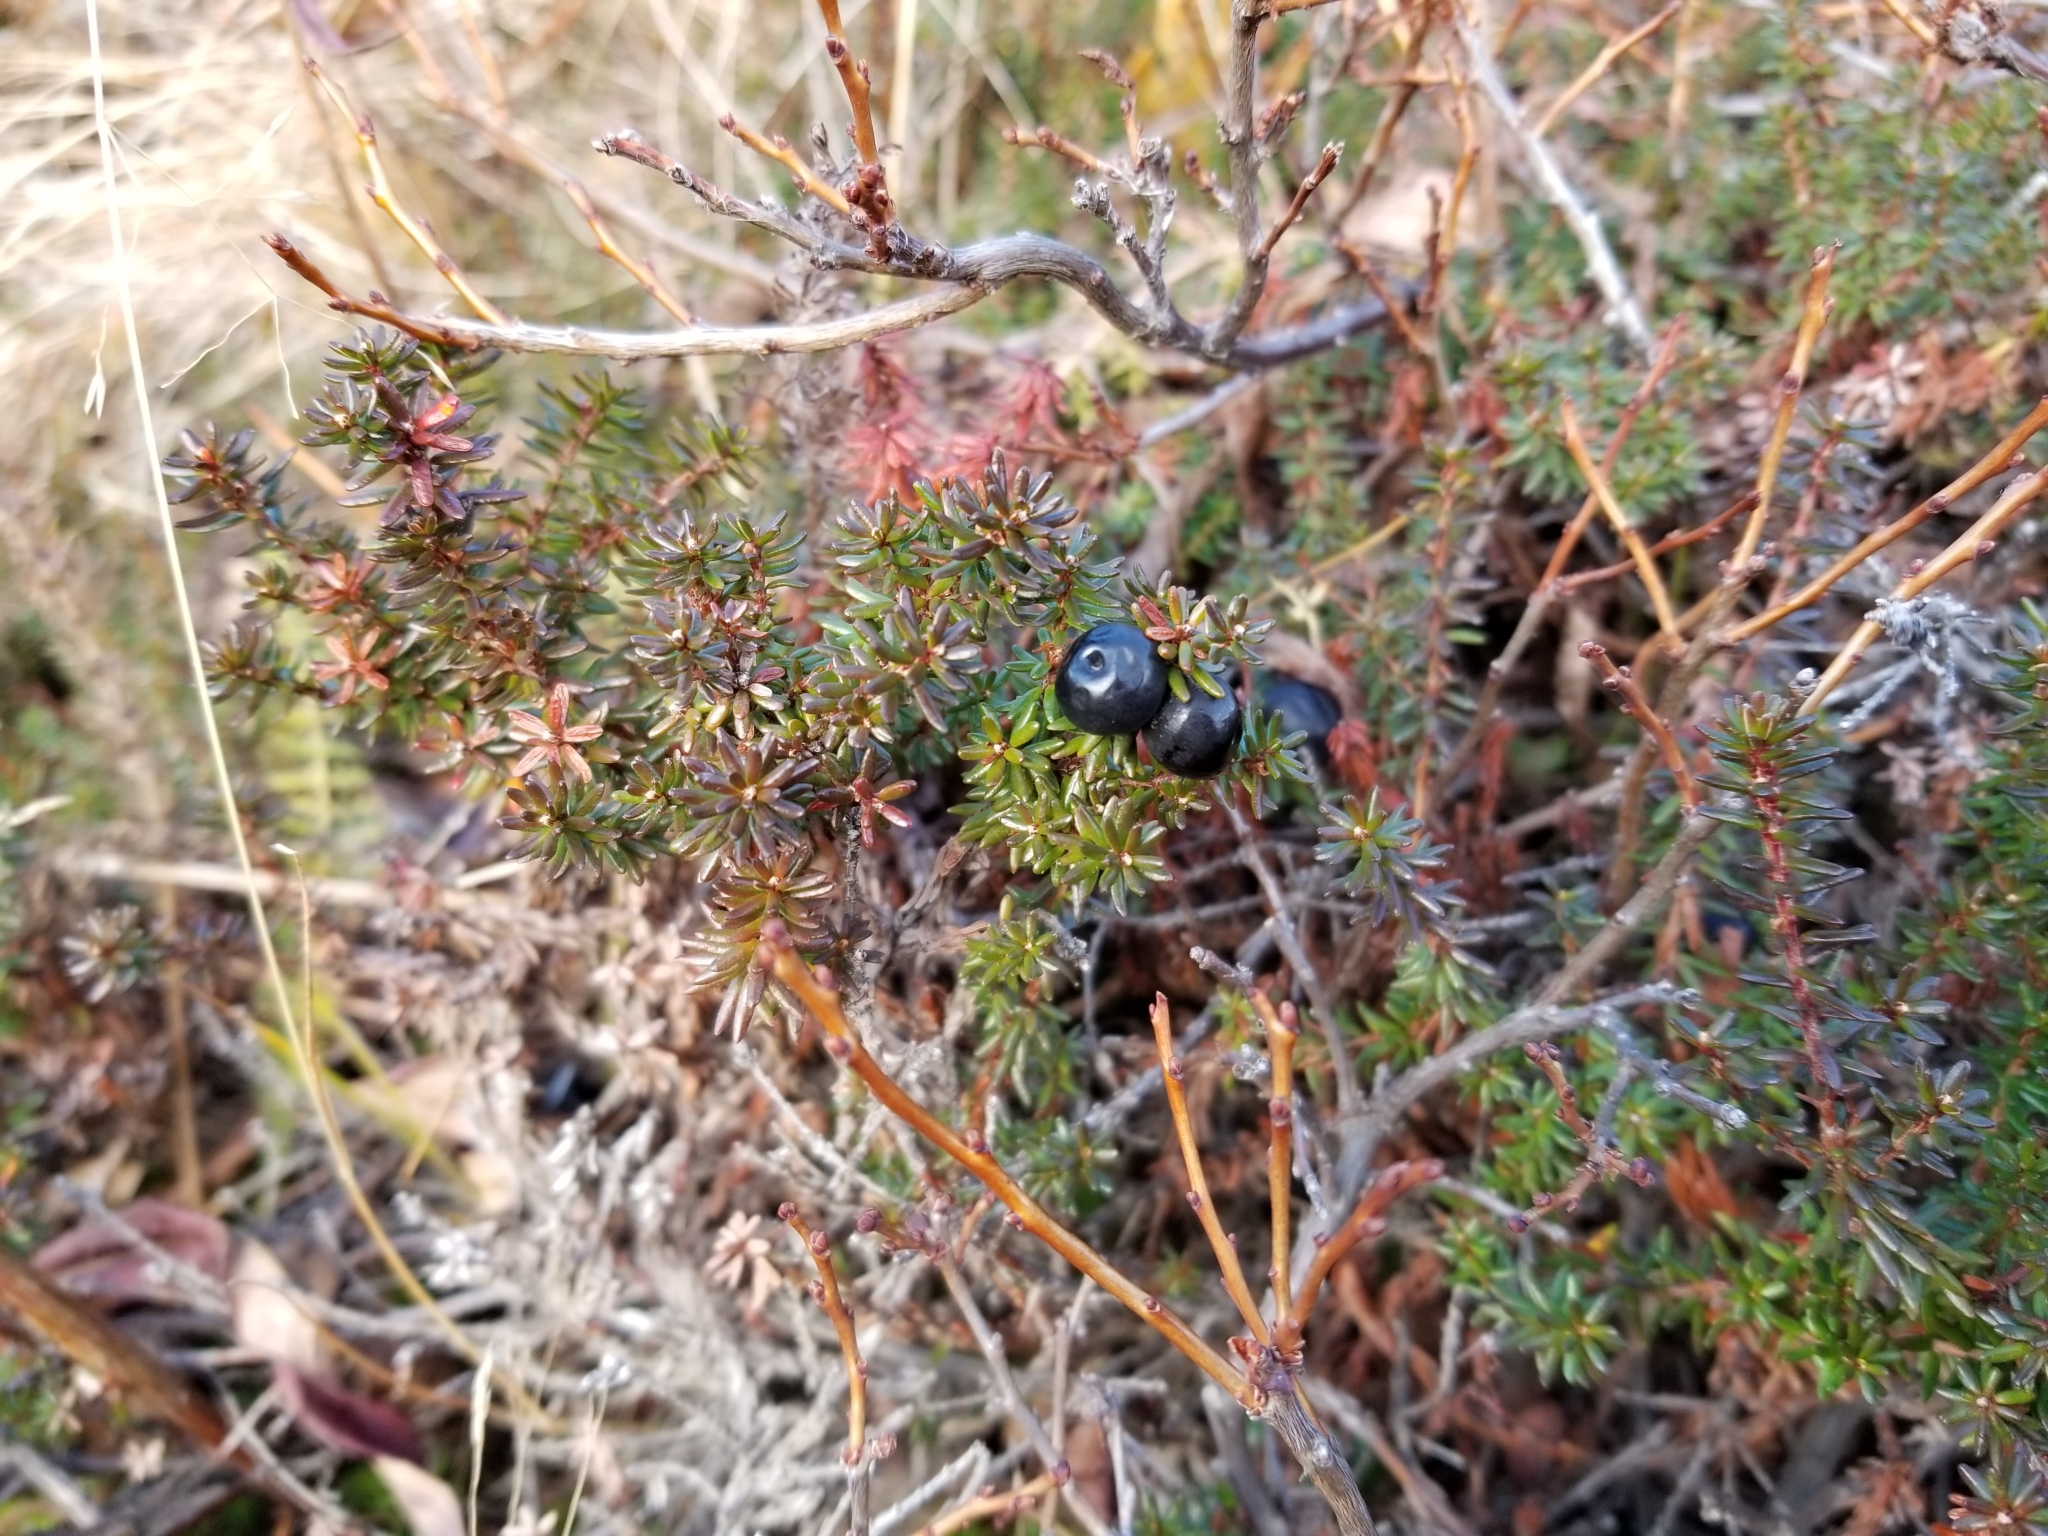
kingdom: Plantae
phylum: Tracheophyta
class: Magnoliopsida
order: Ericales
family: Ericaceae
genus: Empetrum
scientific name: Empetrum nigrum
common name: Black crowberry
